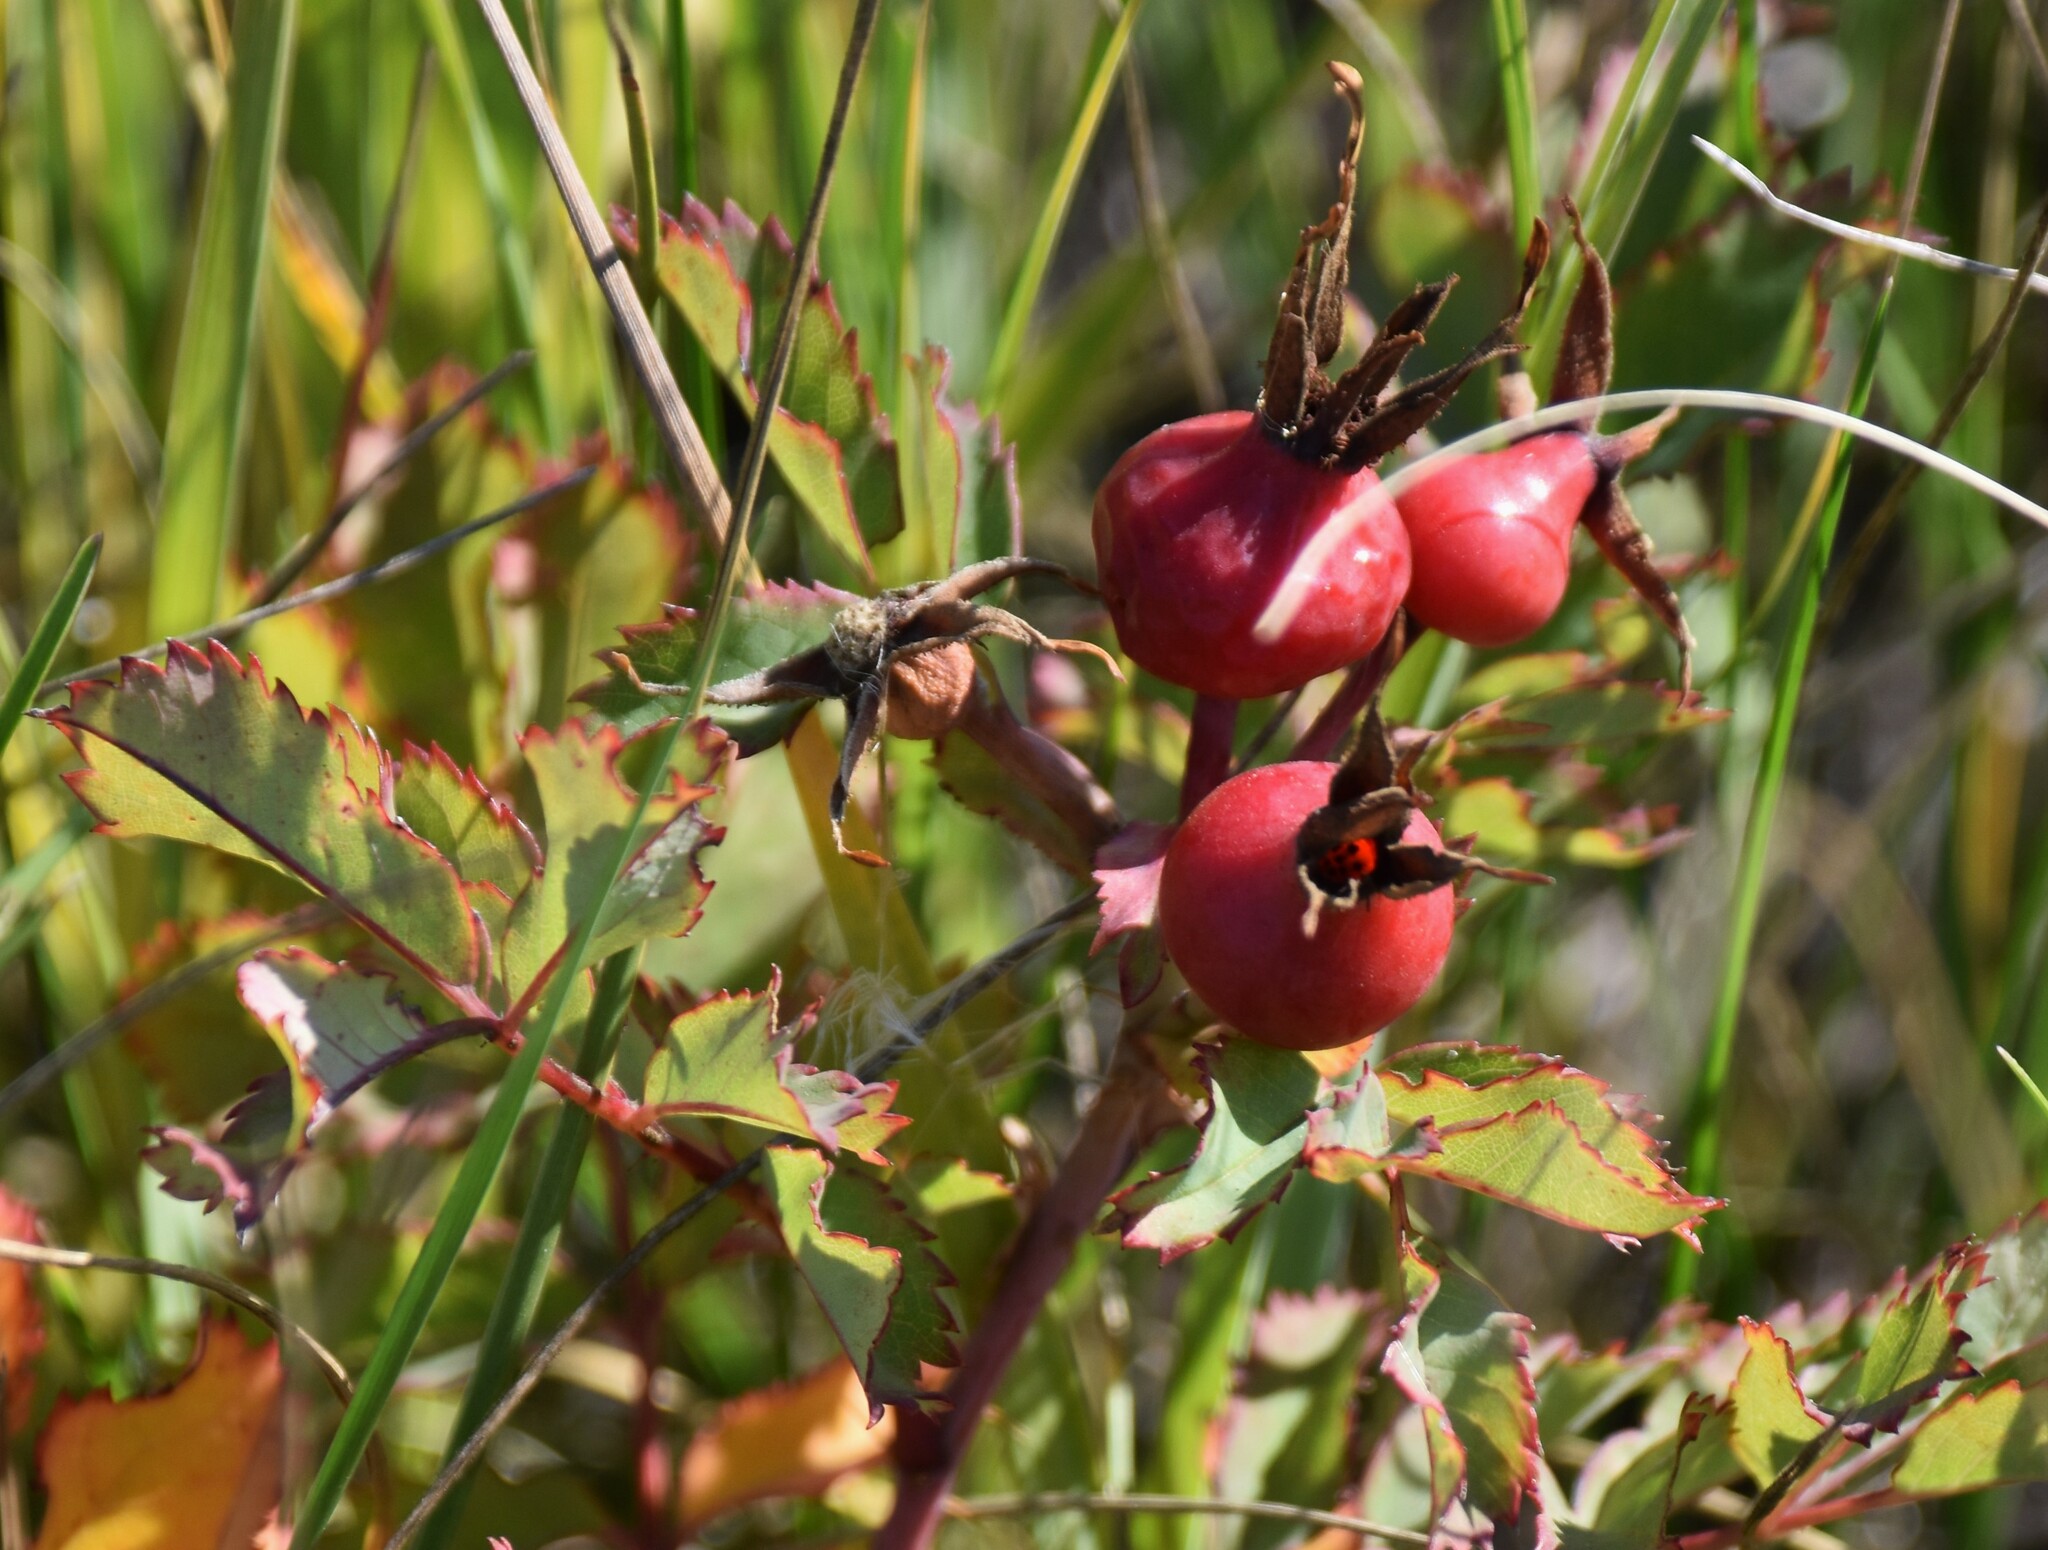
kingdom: Plantae
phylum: Tracheophyta
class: Magnoliopsida
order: Rosales
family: Rosaceae
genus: Rosa
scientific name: Rosa arkansana
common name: Prairie rose
